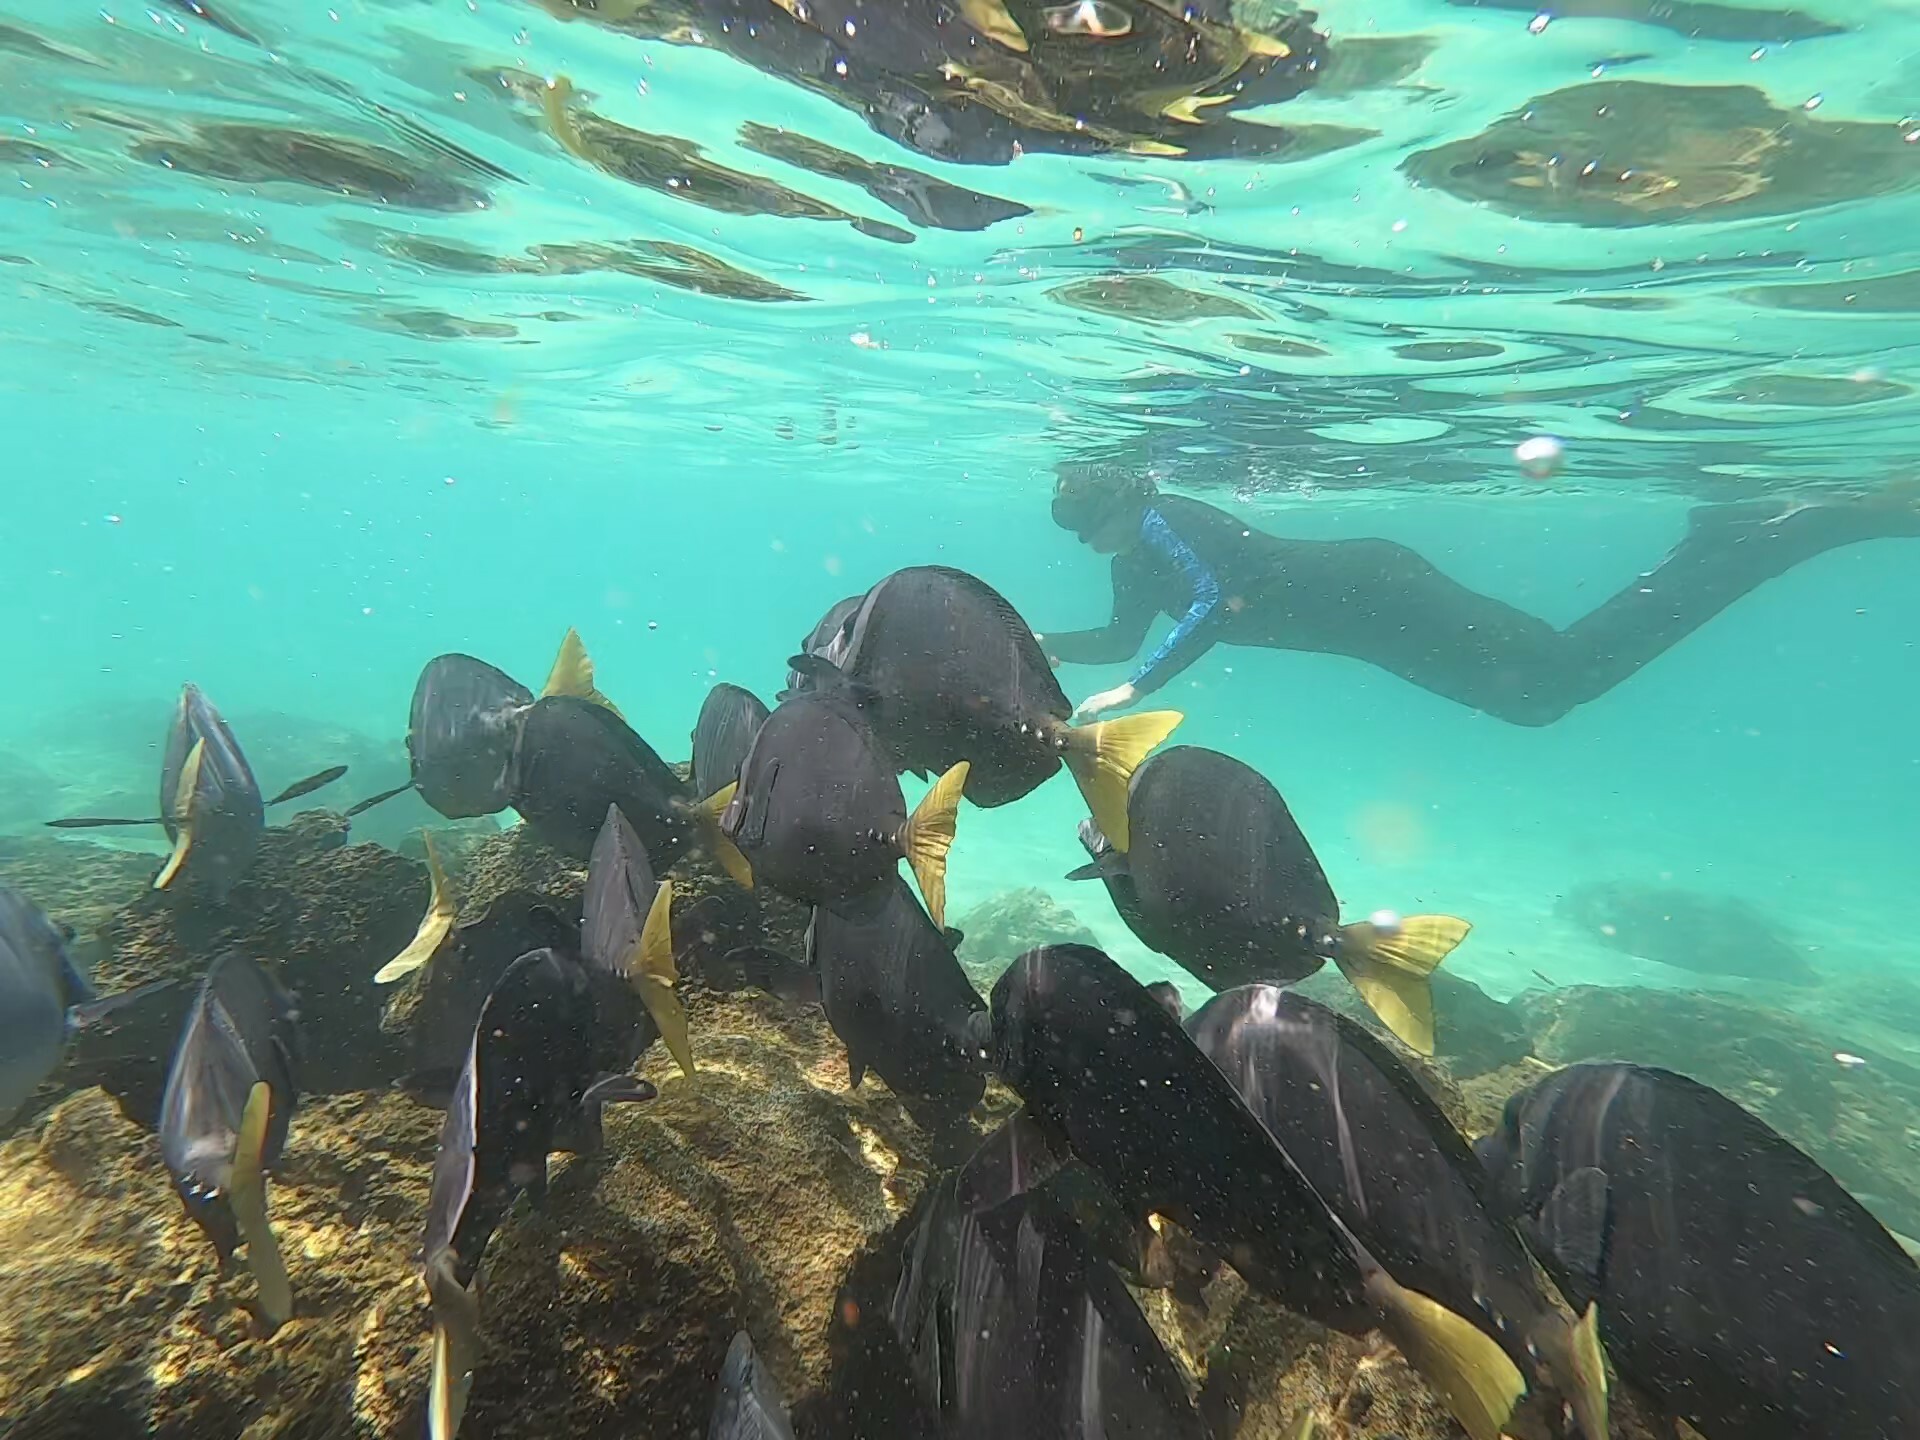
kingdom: Animalia
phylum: Chordata
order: Perciformes
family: Acanthuridae
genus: Prionurus
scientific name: Prionurus laticlavius
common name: Razor surgeonfish
